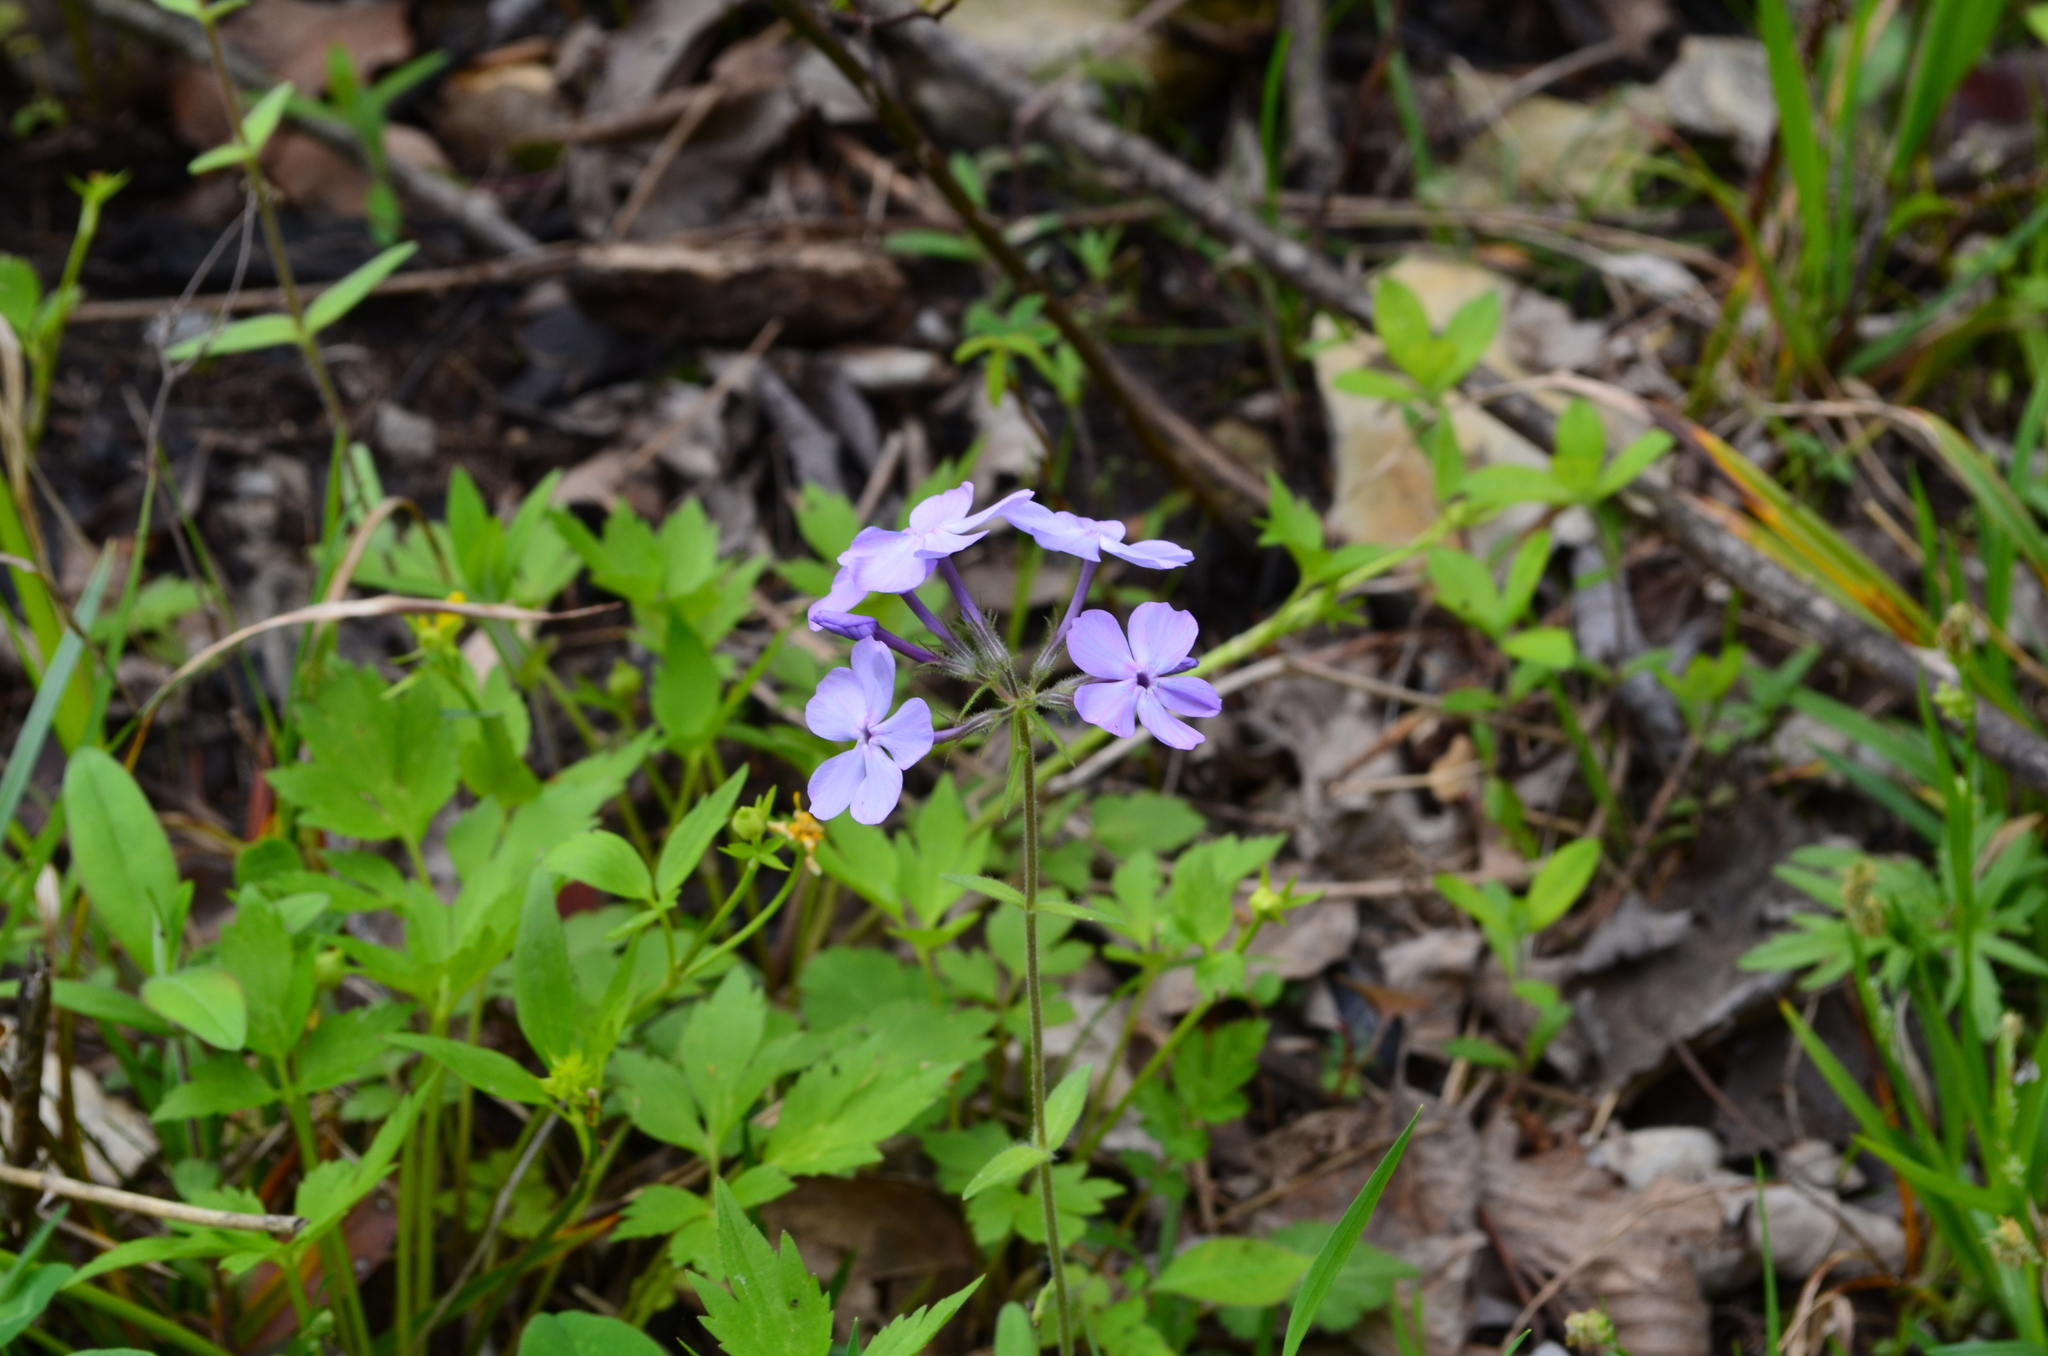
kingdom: Plantae
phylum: Tracheophyta
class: Magnoliopsida
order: Ericales
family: Polemoniaceae
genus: Phlox
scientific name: Phlox divaricata
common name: Blue phlox
